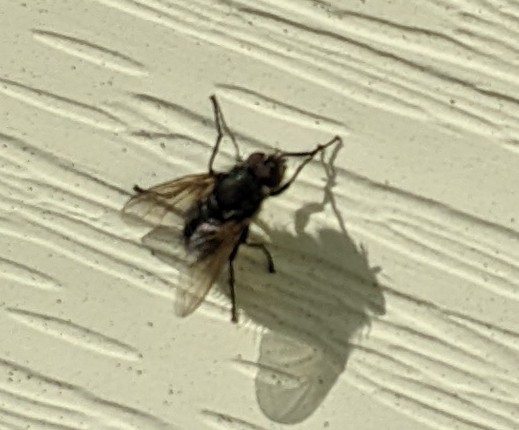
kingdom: Animalia
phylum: Arthropoda
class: Insecta
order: Diptera
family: Polleniidae
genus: Pollenia
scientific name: Pollenia
